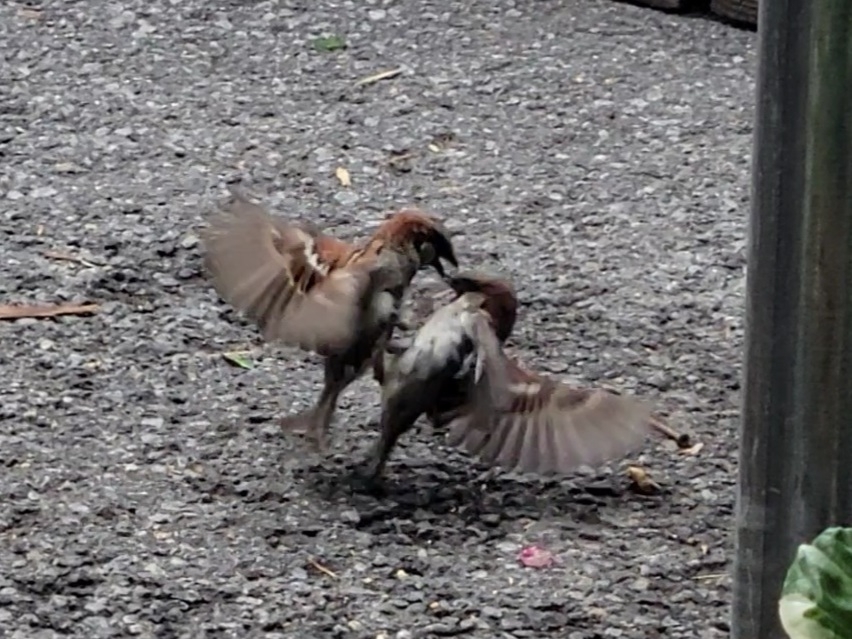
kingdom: Animalia
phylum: Chordata
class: Aves
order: Passeriformes
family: Passeridae
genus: Passer
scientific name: Passer domesticus
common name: House sparrow
